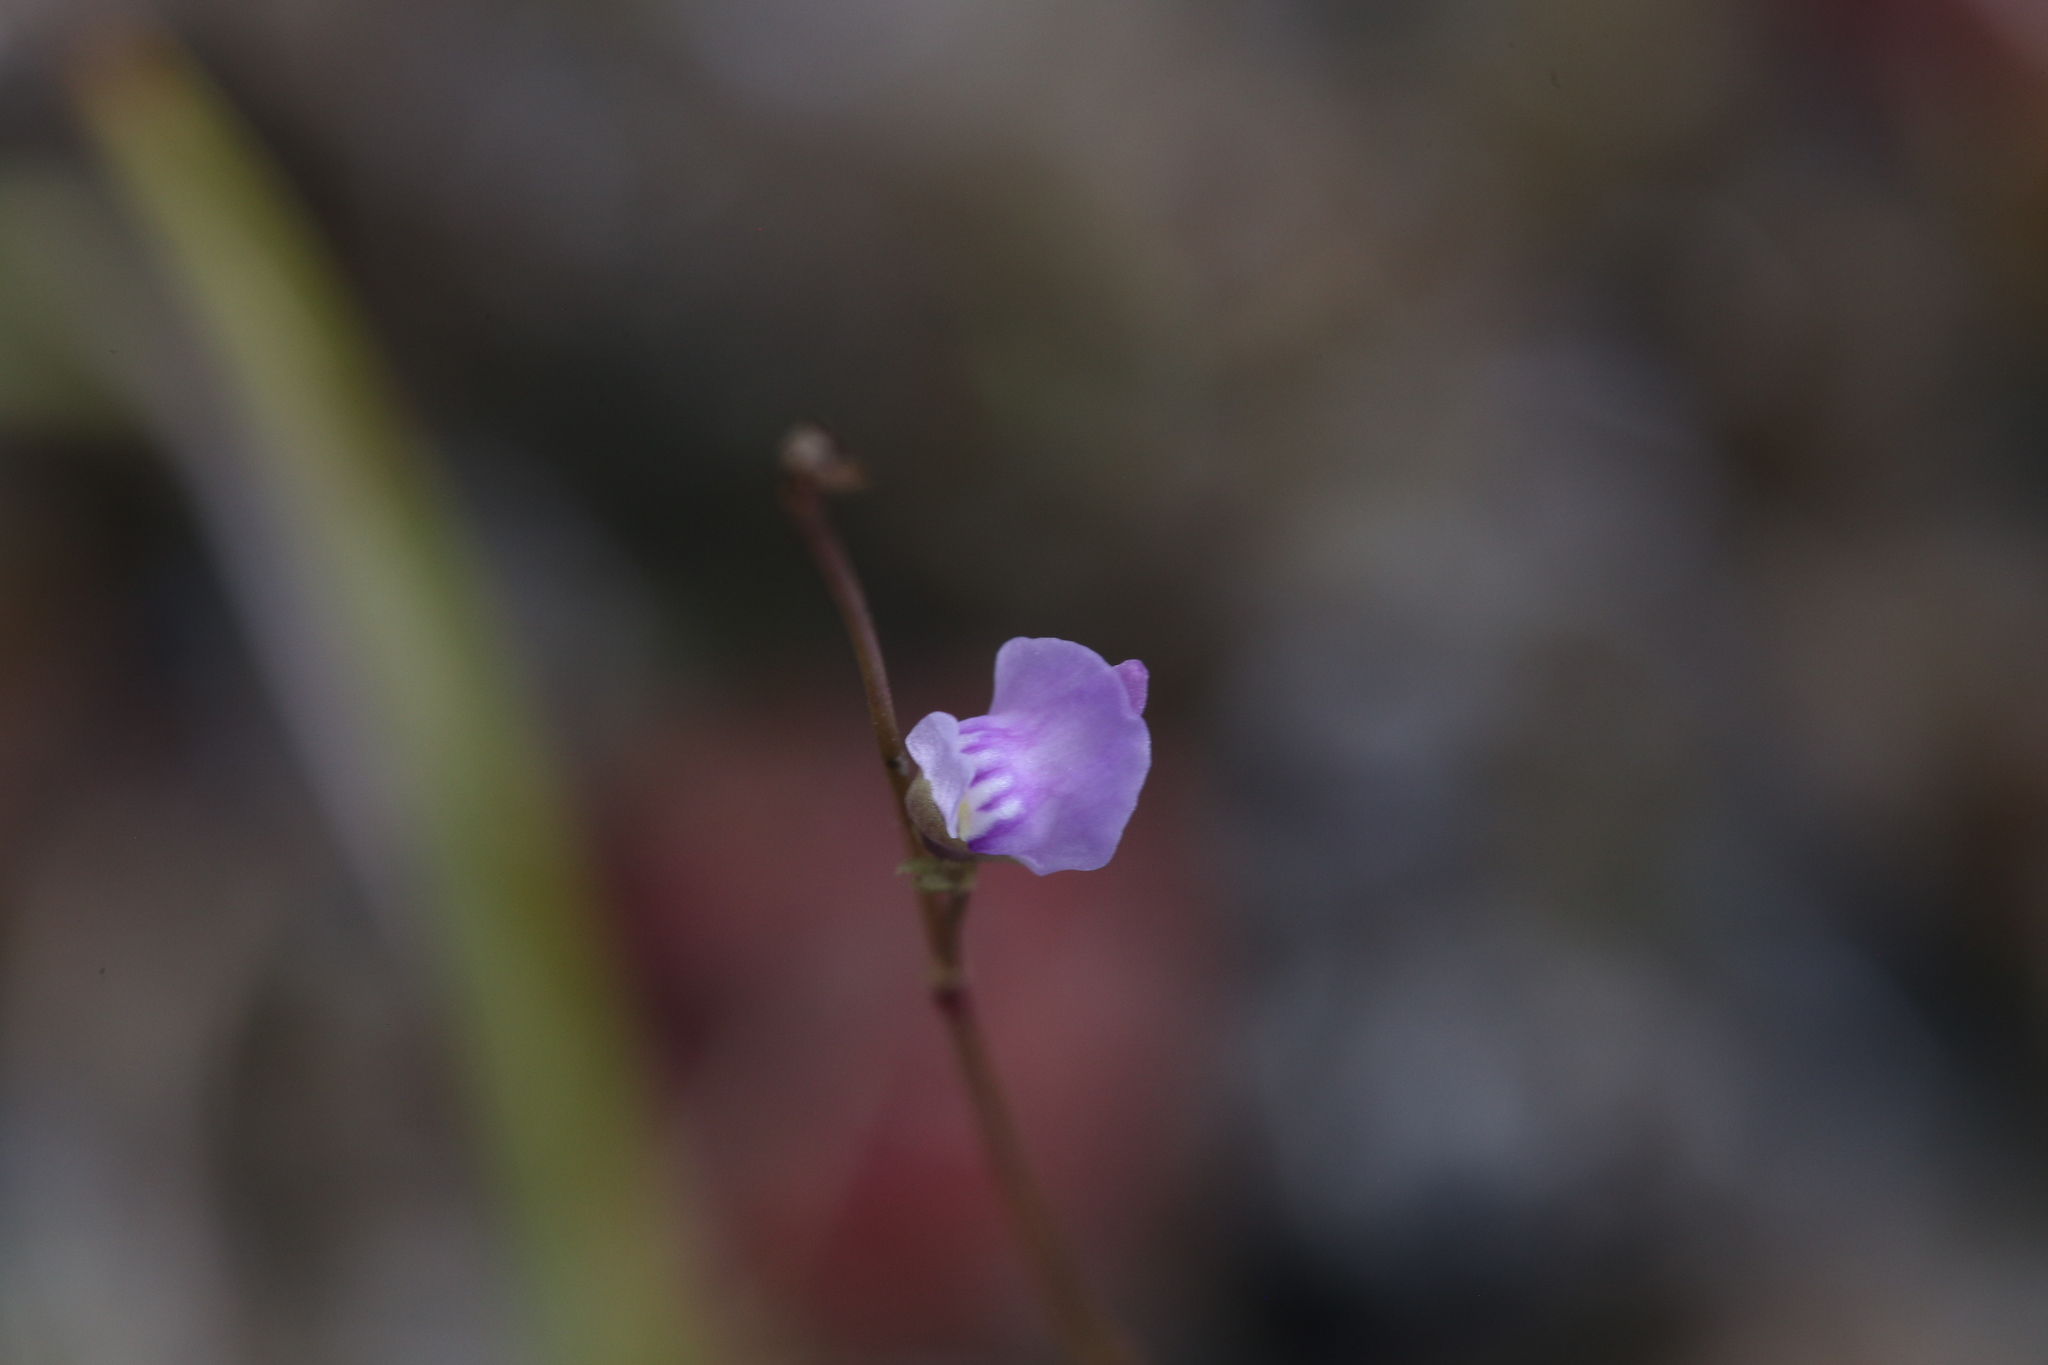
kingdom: Plantae
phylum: Tracheophyta
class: Magnoliopsida
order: Lamiales
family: Lentibulariaceae
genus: Utricularia
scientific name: Utricularia caerulea
